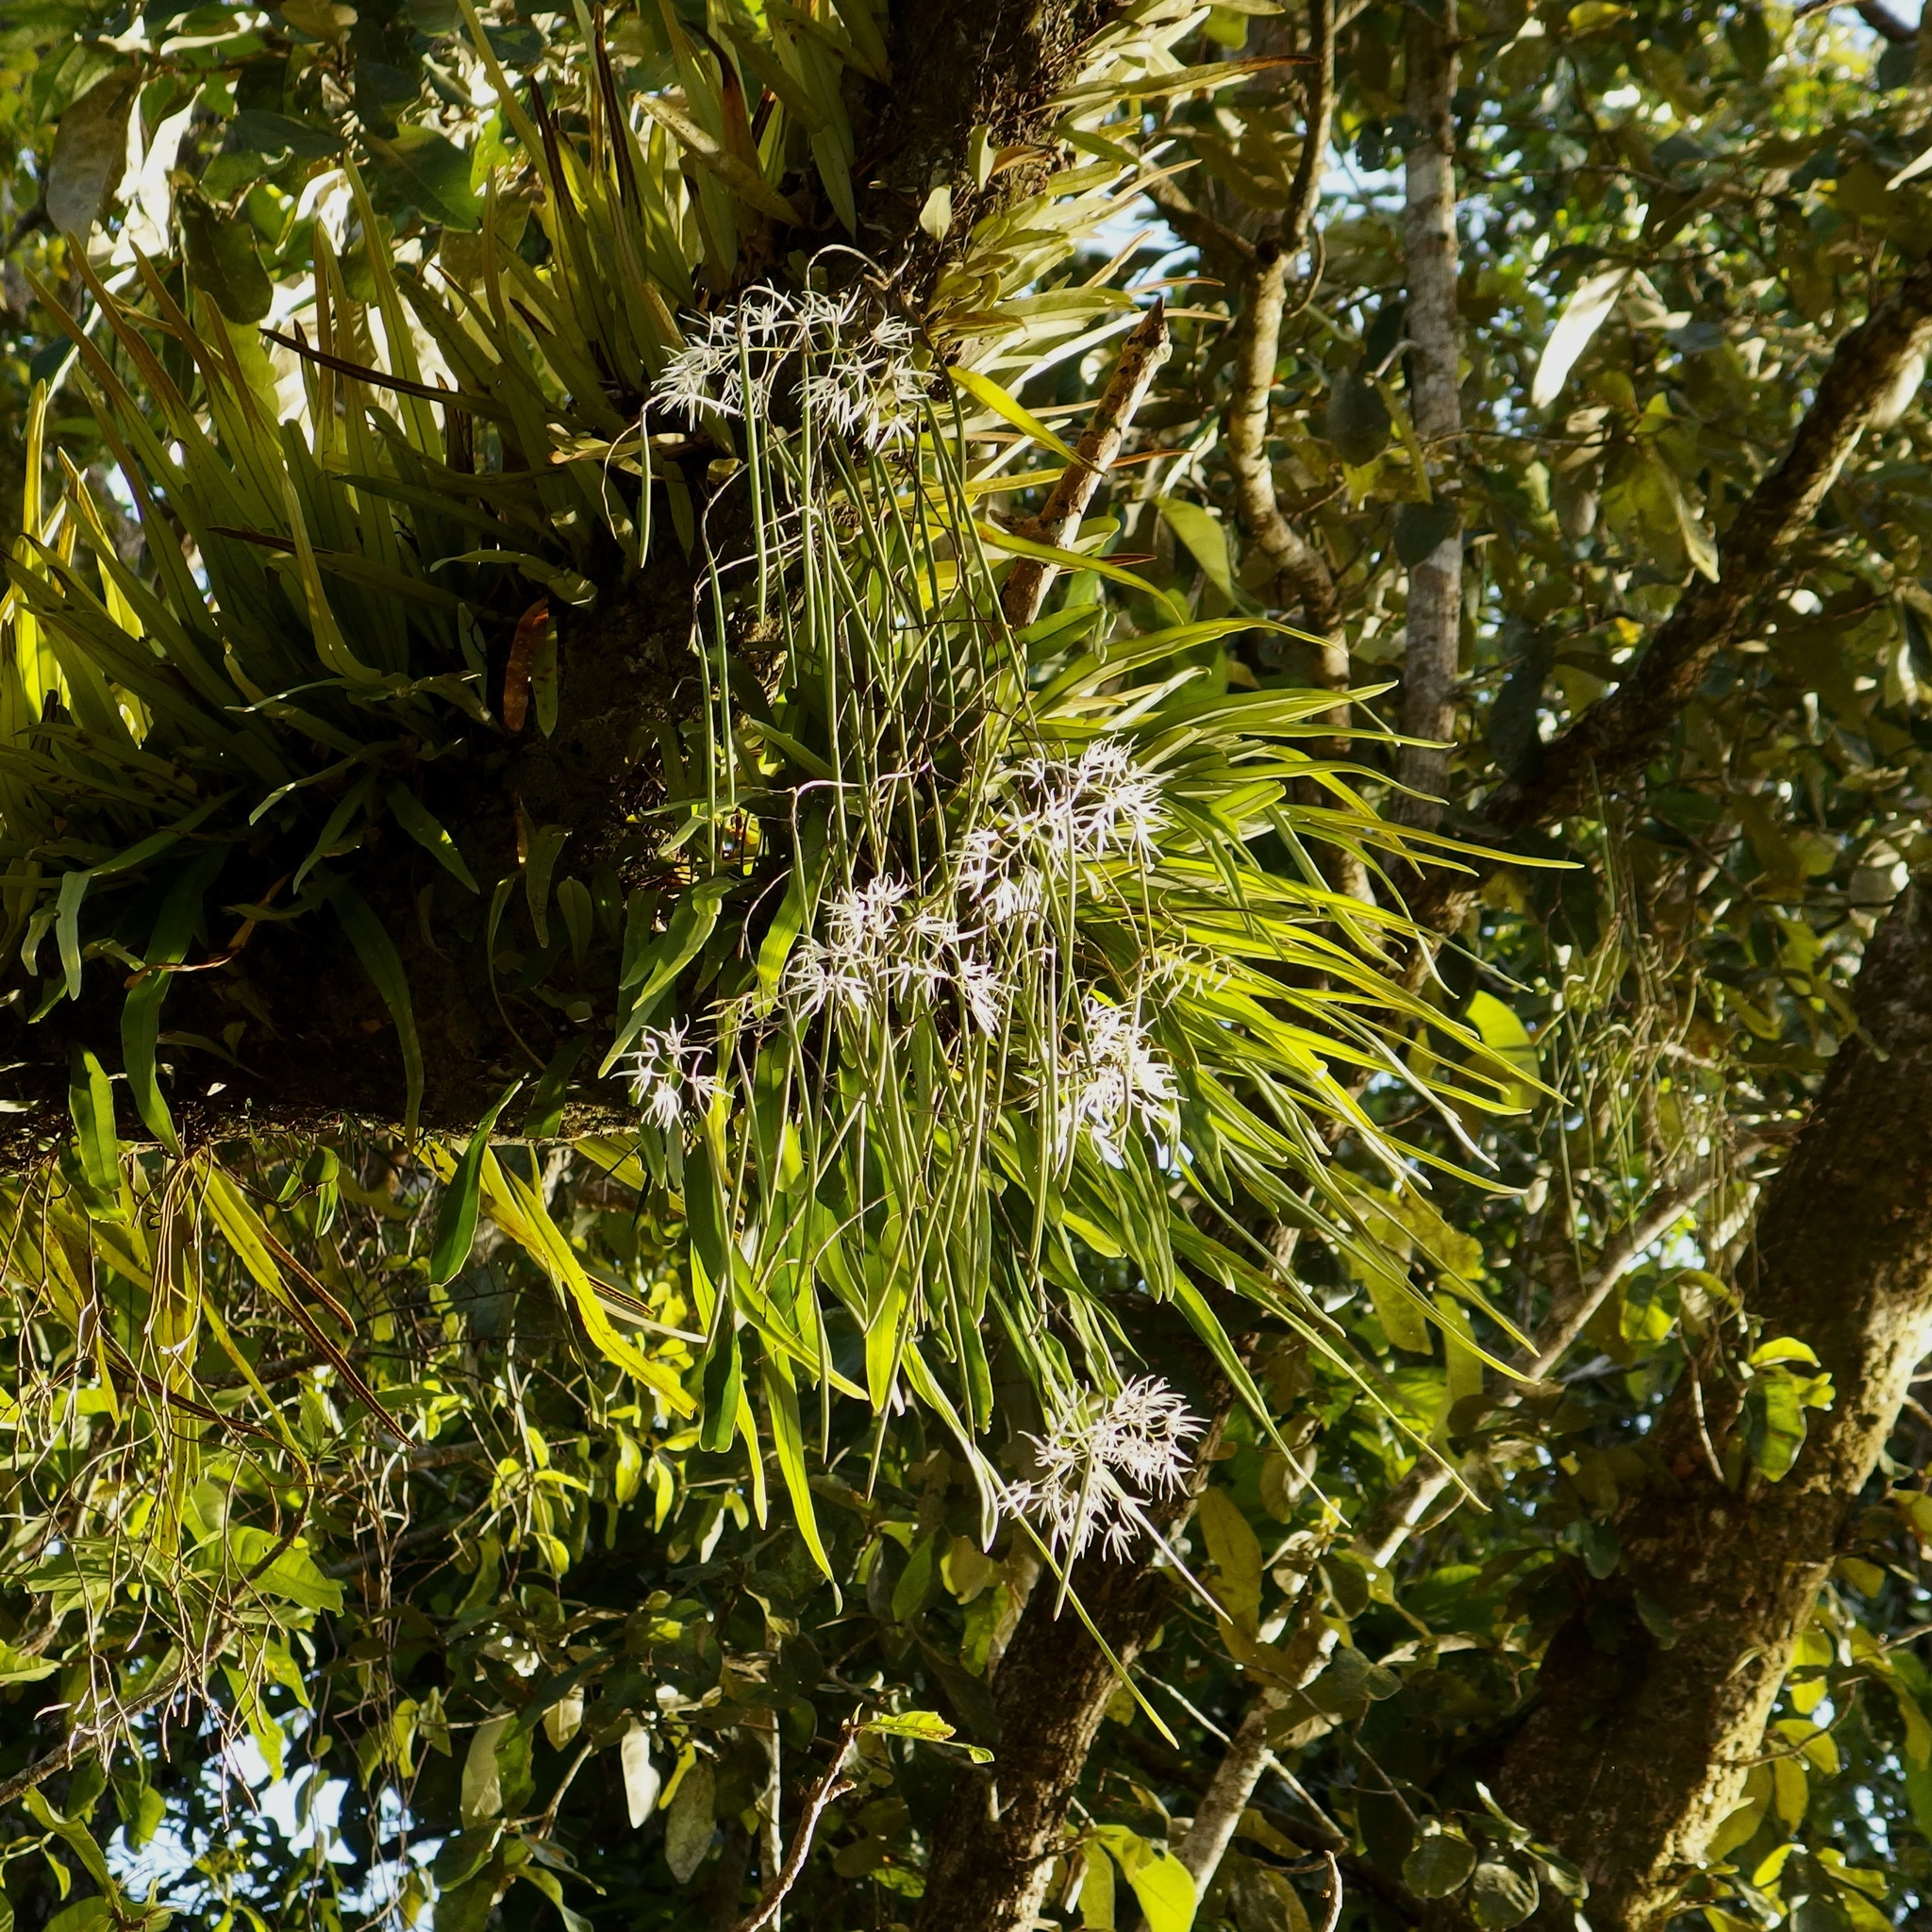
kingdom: Plantae
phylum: Tracheophyta
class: Liliopsida
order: Asparagales
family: Orchidaceae
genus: Dendrobium
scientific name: Dendrobium teretifolium
